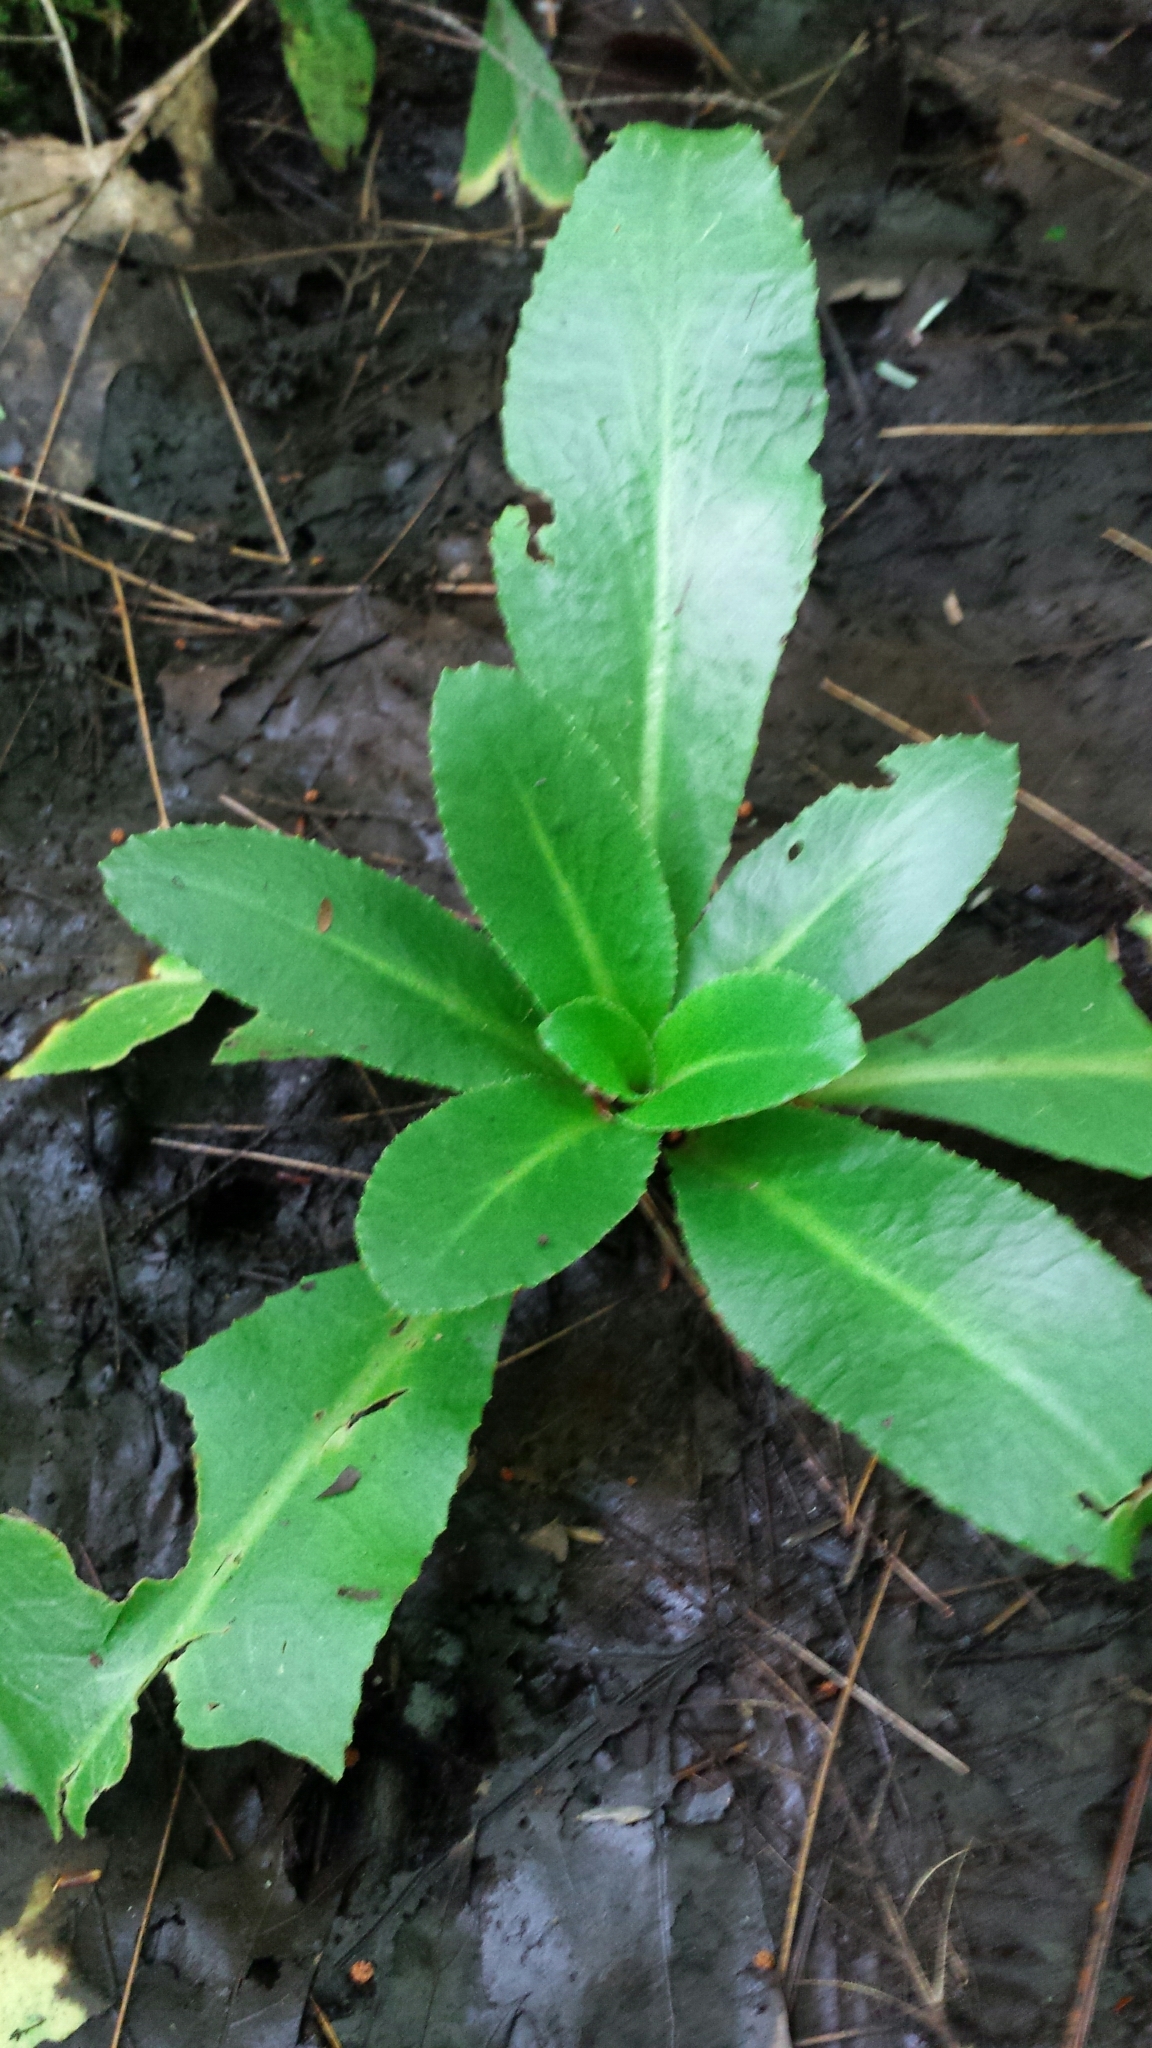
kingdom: Plantae
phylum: Tracheophyta
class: Magnoliopsida
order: Saxifragales
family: Saxifragaceae
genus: Micranthes
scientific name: Micranthes pensylvanica
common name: Marsh saxifrage
